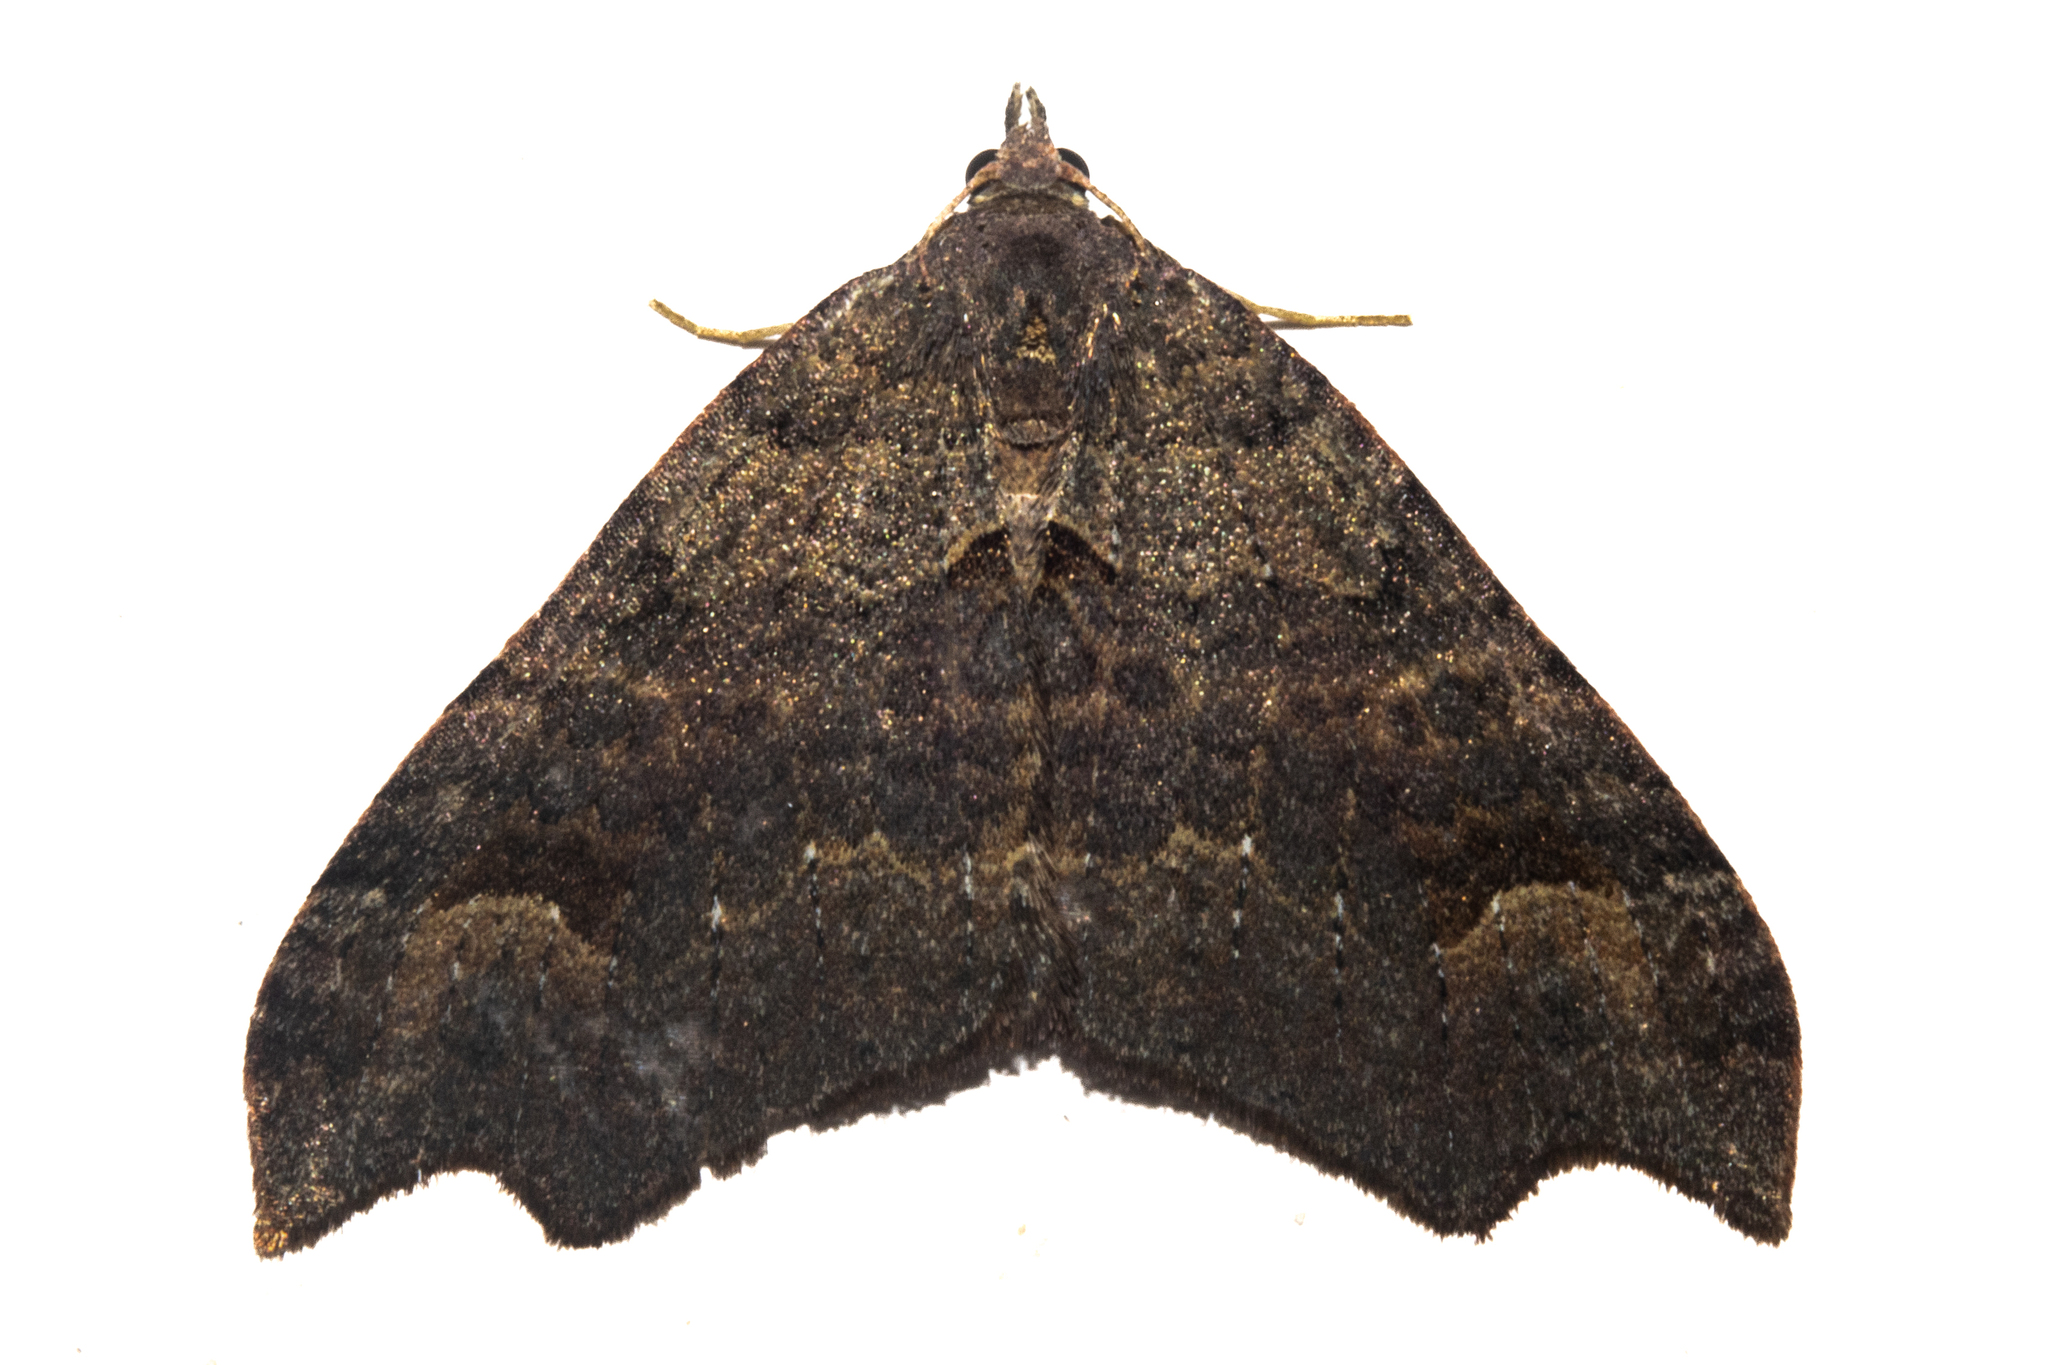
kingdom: Animalia
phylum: Arthropoda
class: Insecta
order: Lepidoptera
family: Geometridae
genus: Austrocidaria
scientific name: Austrocidaria parora
